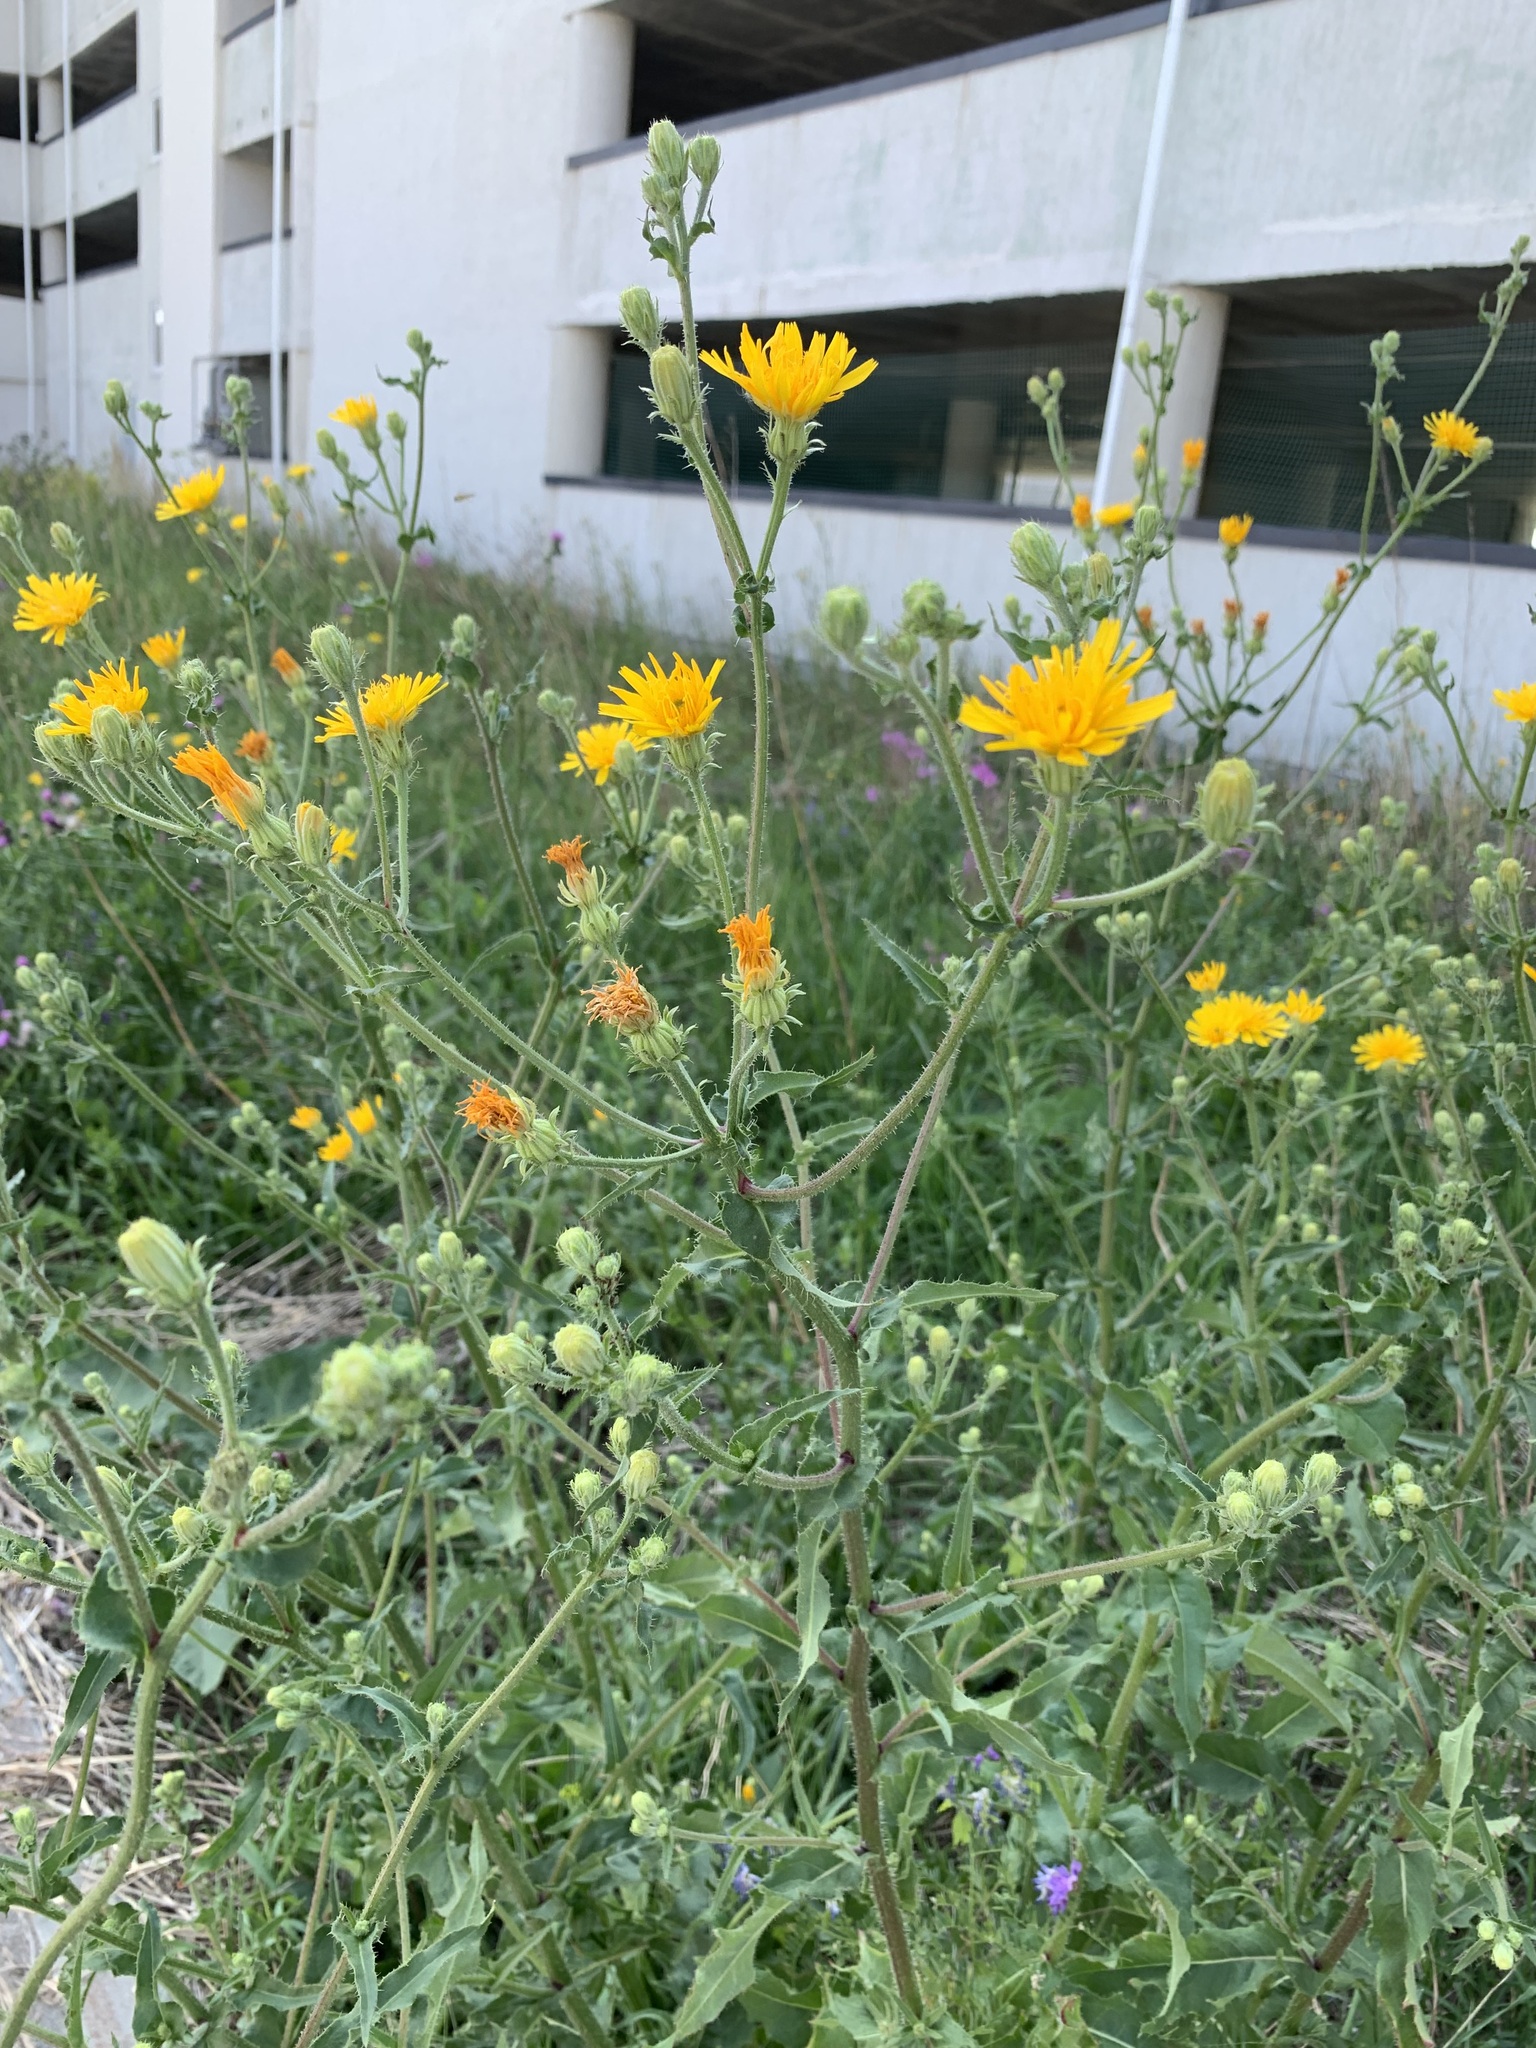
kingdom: Plantae
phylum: Tracheophyta
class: Magnoliopsida
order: Asterales
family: Asteraceae
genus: Picris
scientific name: Picris hieracioides
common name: Hawkweed oxtongue
